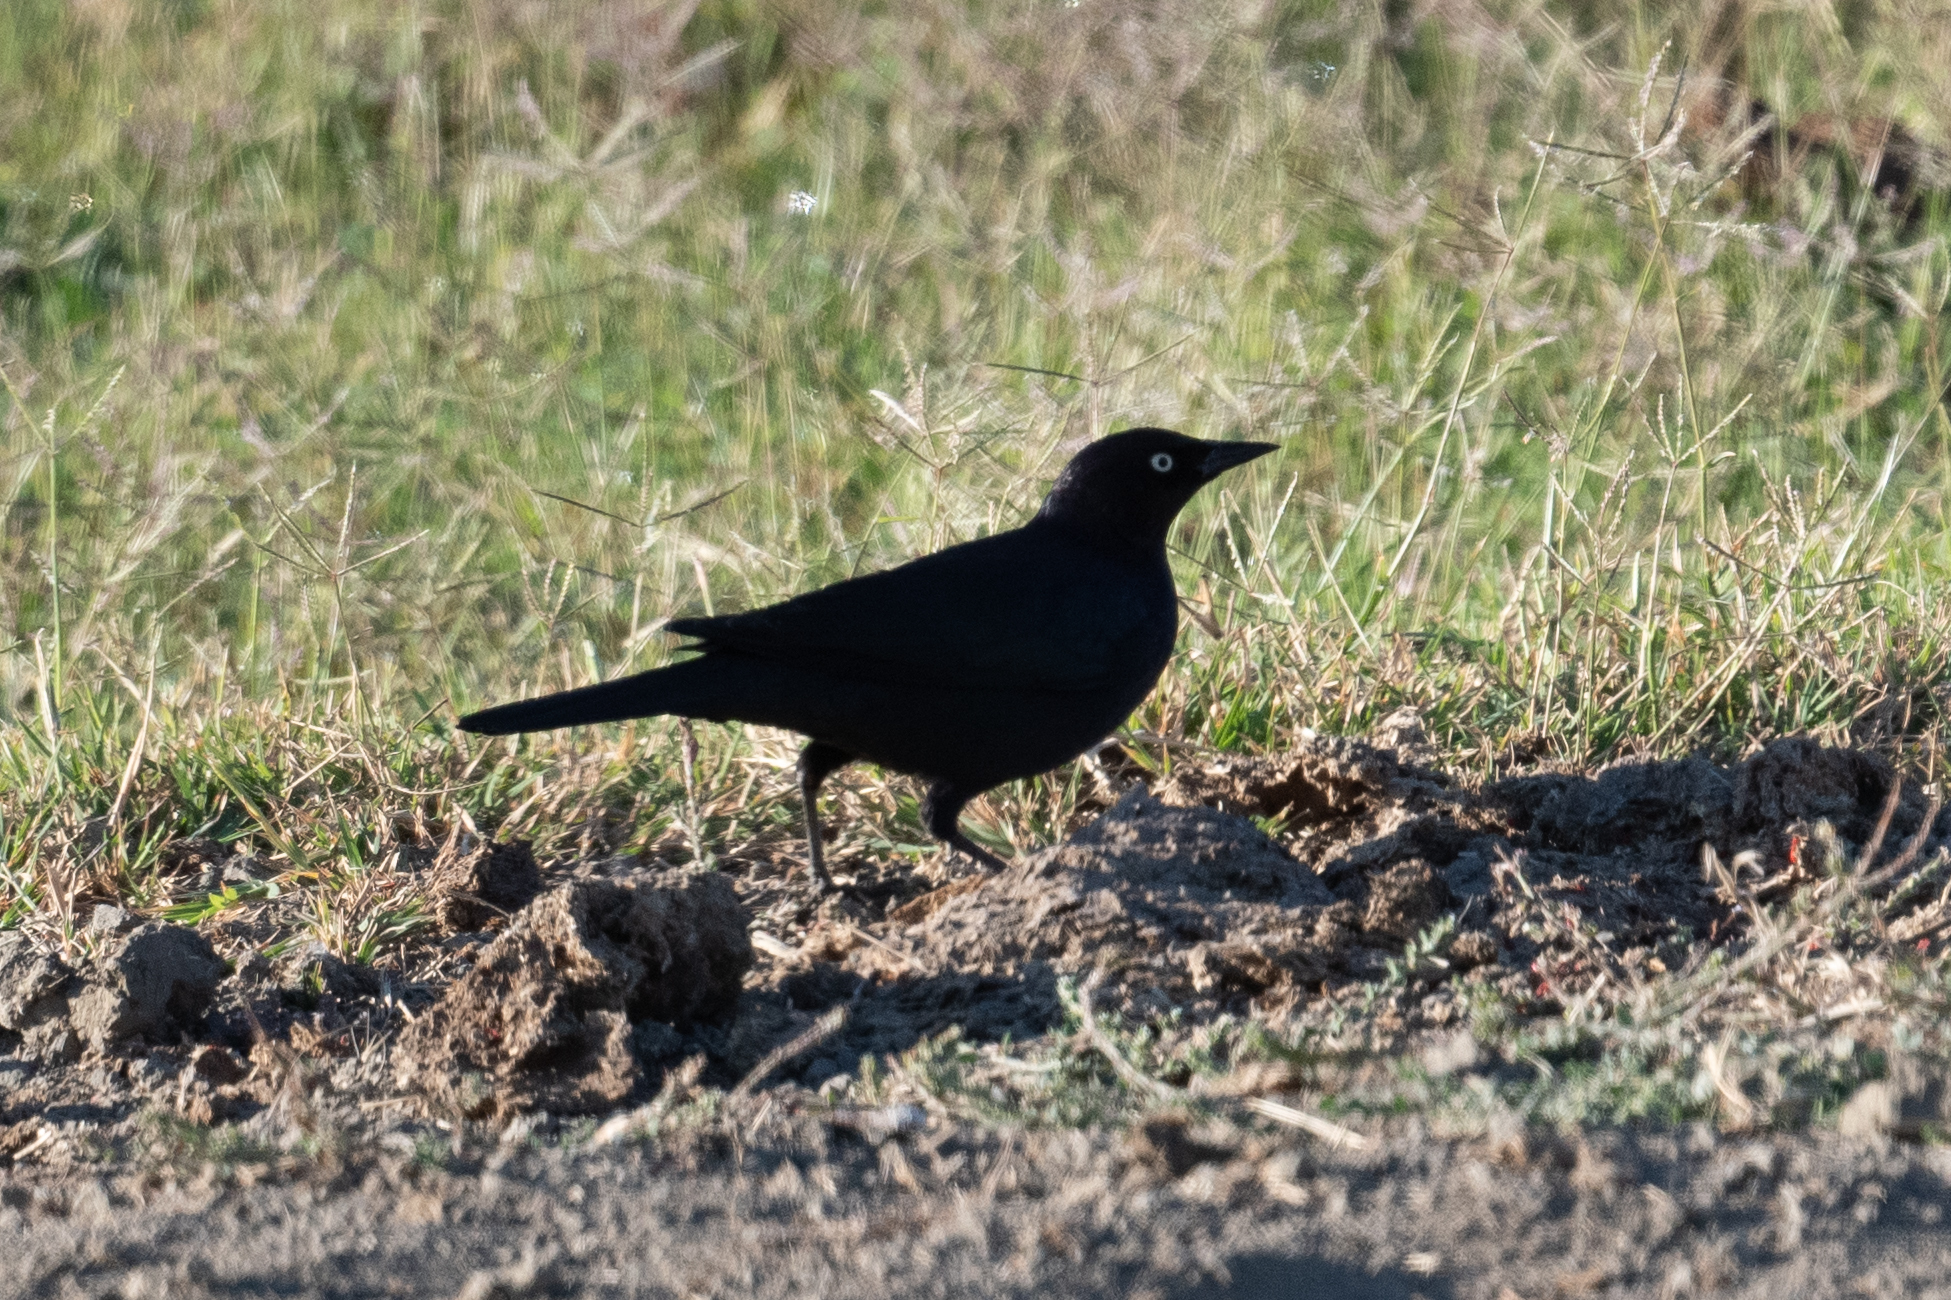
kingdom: Animalia
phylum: Chordata
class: Aves
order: Passeriformes
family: Icteridae
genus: Euphagus
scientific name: Euphagus cyanocephalus
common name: Brewer's blackbird
